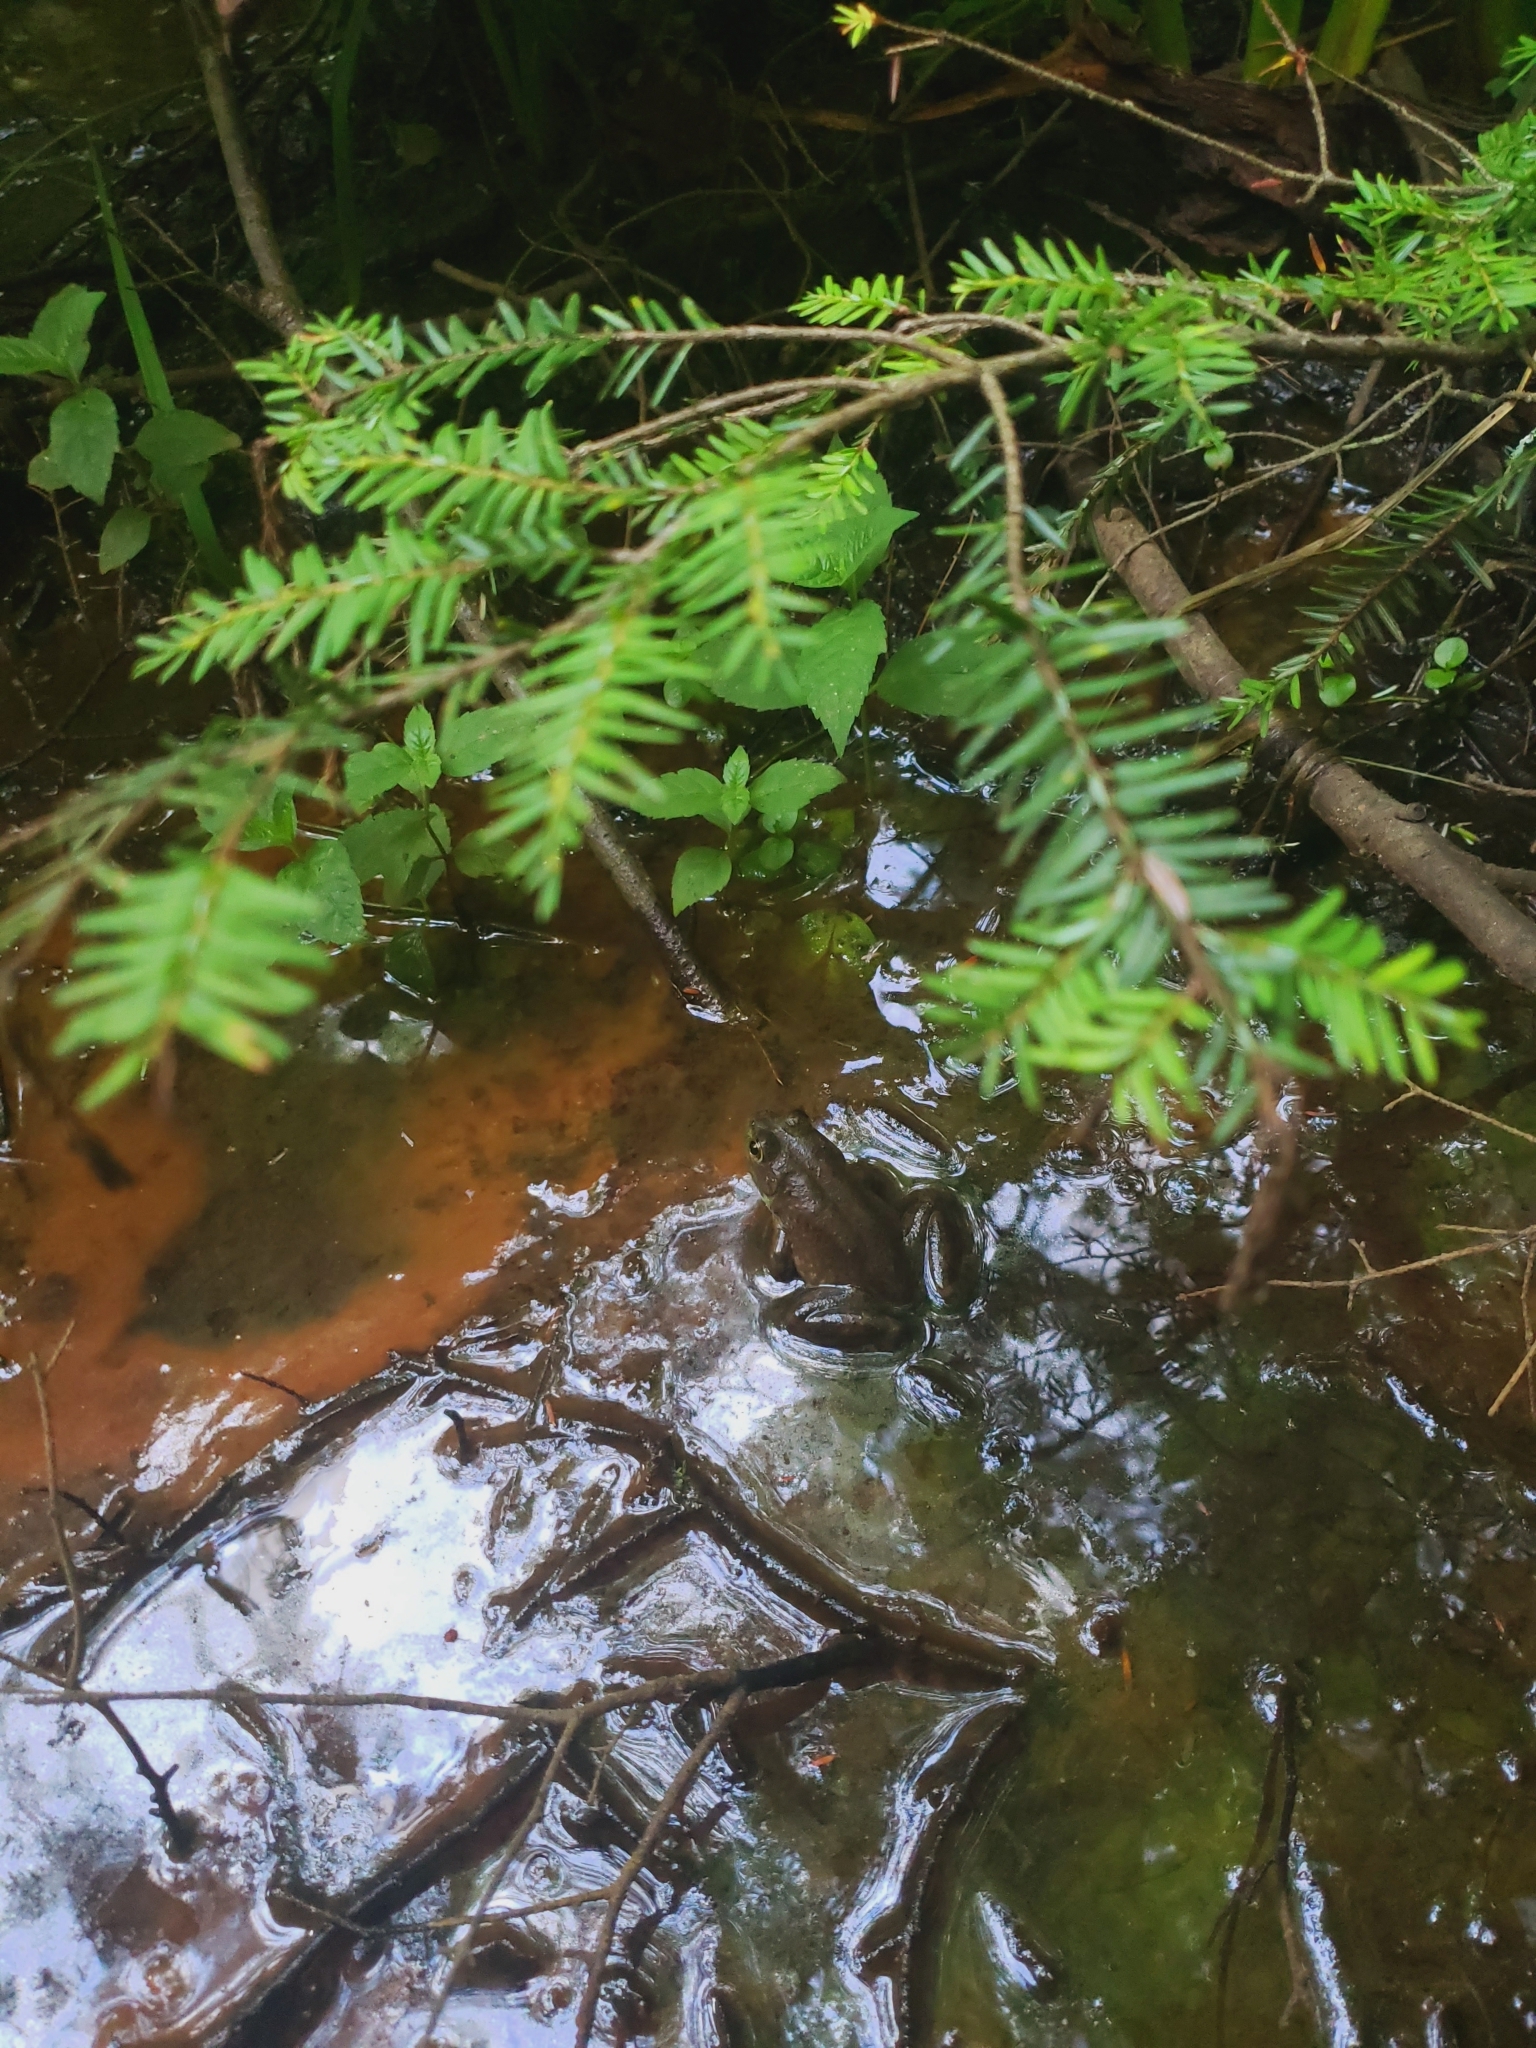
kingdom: Animalia
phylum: Chordata
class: Amphibia
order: Anura
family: Ranidae
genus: Lithobates
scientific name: Lithobates catesbeianus
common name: American bullfrog
